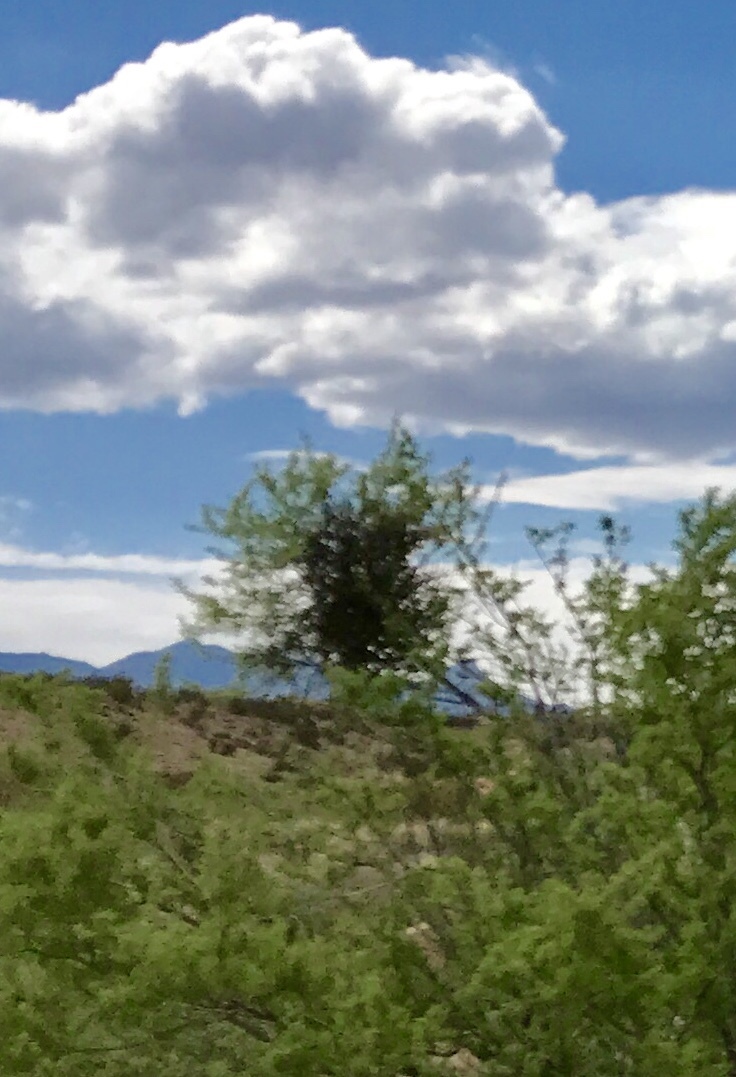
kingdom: Plantae
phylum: Tracheophyta
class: Magnoliopsida
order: Santalales
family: Viscaceae
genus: Phoradendron
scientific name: Phoradendron californicum
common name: Acacia mistletoe
